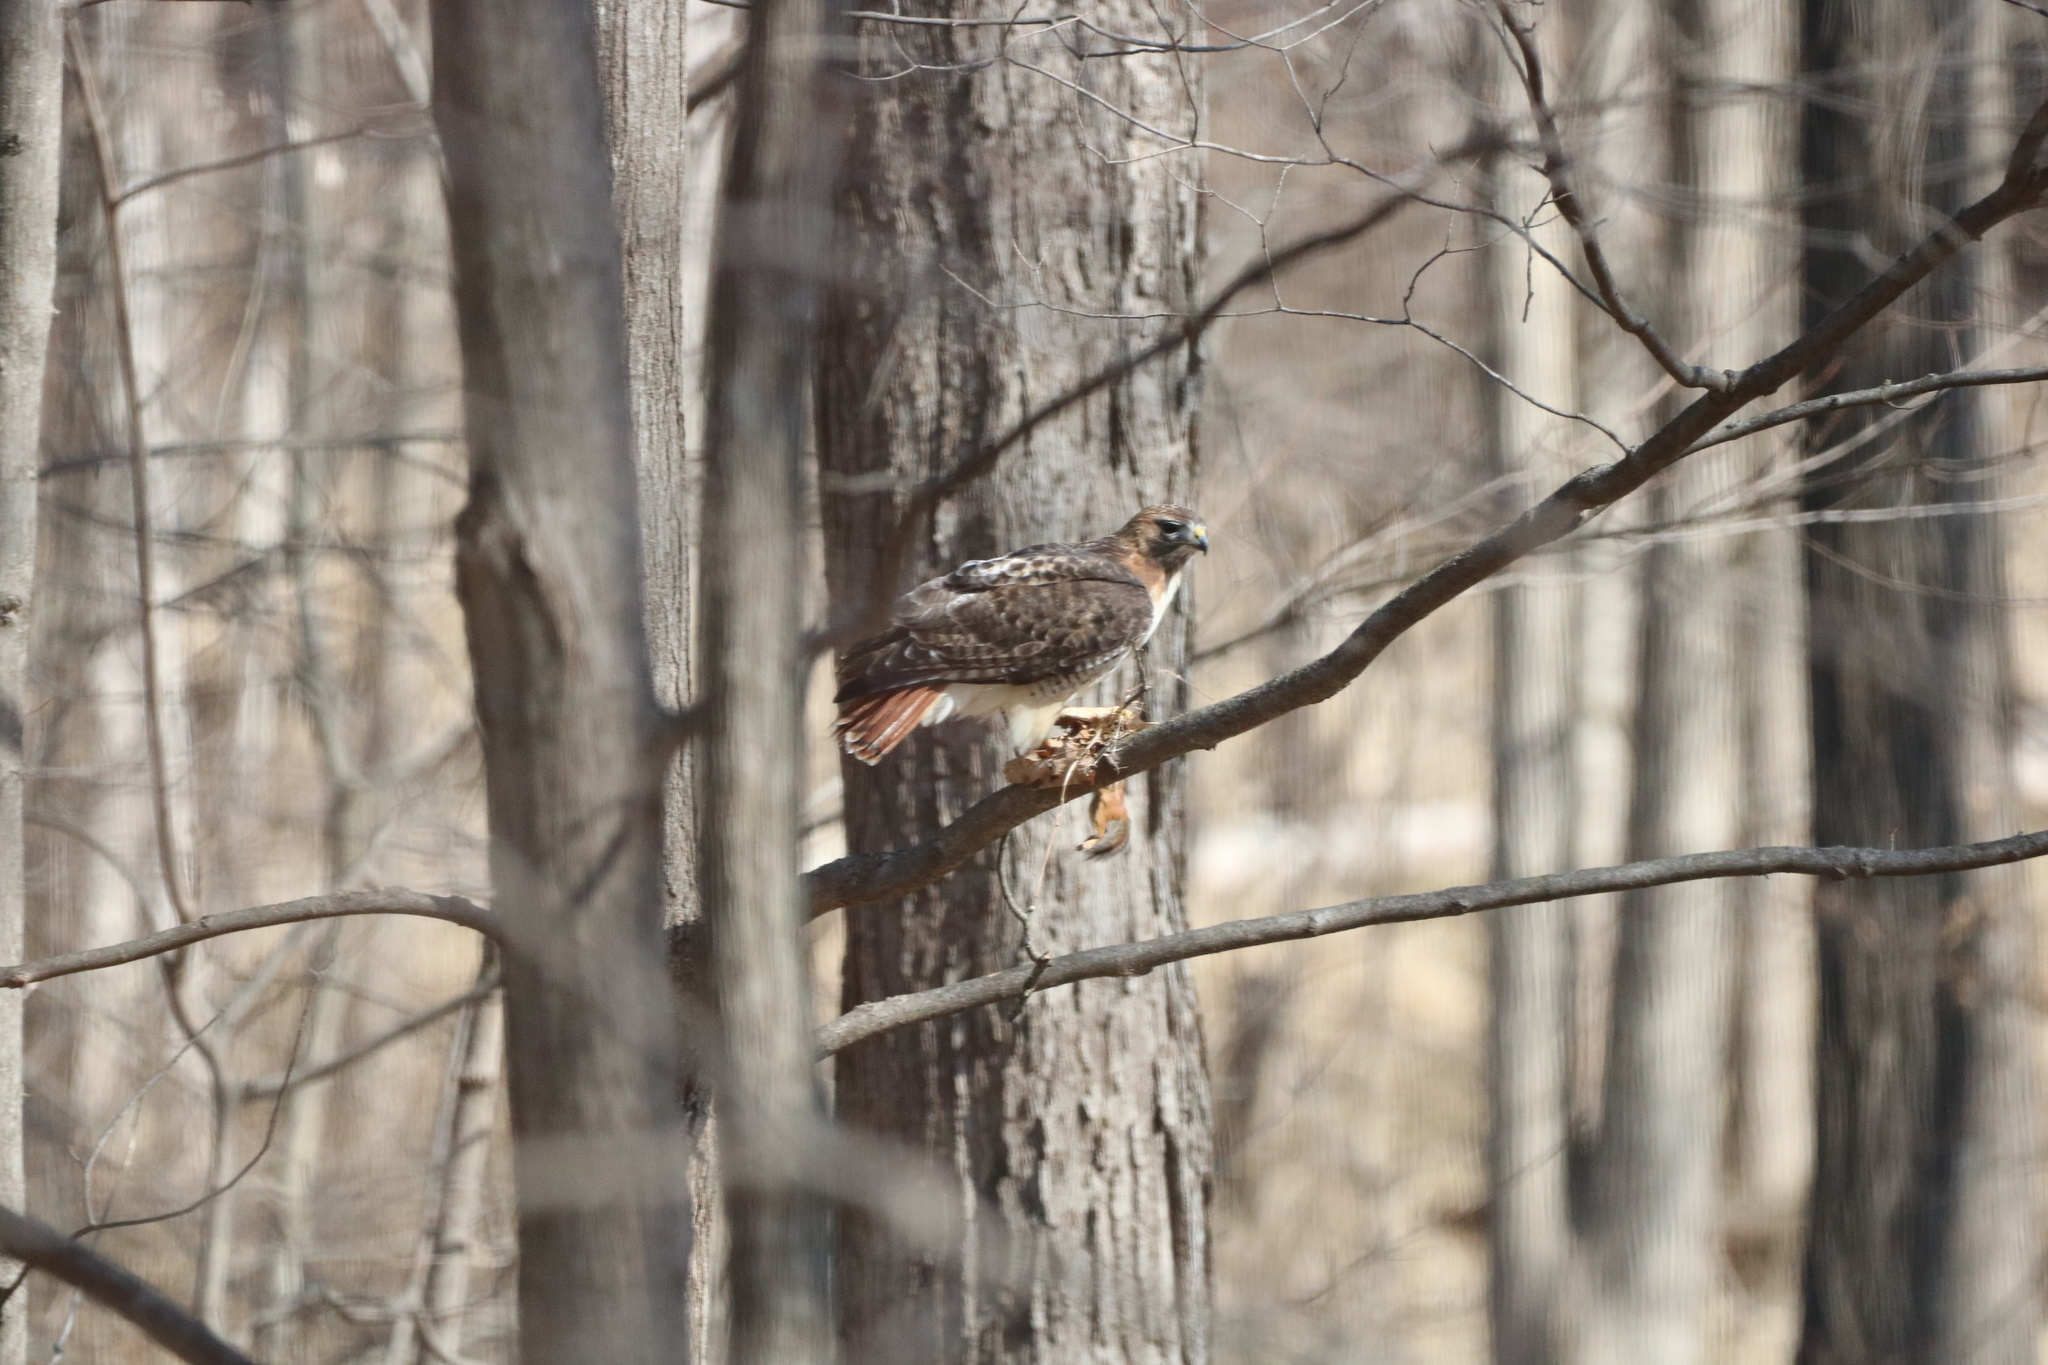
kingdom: Animalia
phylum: Chordata
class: Aves
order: Accipitriformes
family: Accipitridae
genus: Buteo
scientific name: Buteo jamaicensis
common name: Red-tailed hawk
